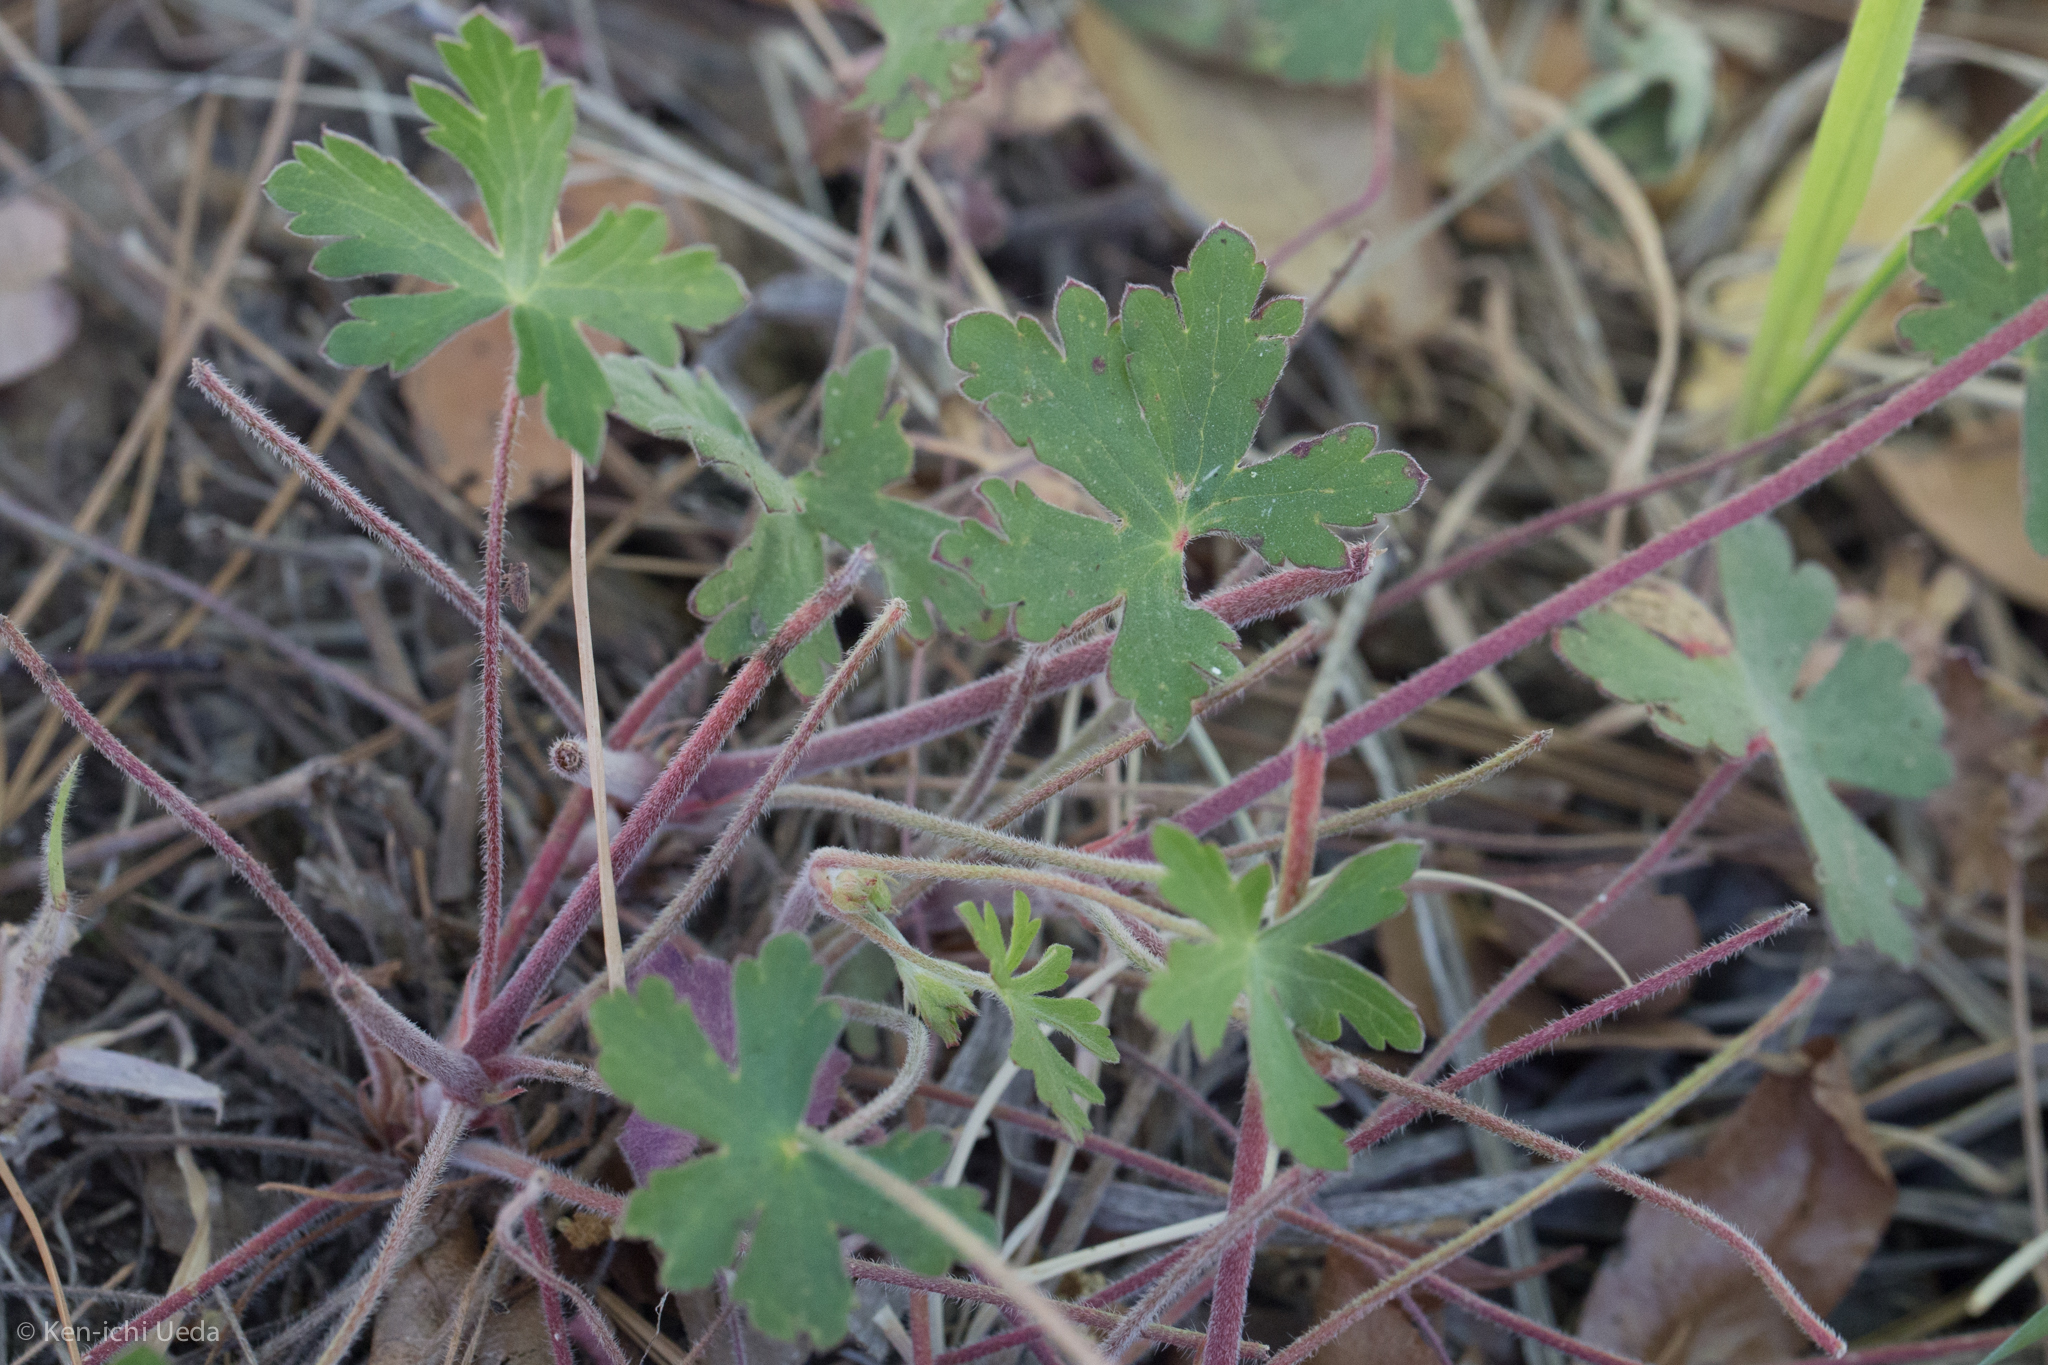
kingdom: Plantae
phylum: Tracheophyta
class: Magnoliopsida
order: Geraniales
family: Geraniaceae
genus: Geranium
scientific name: Geranium caespitosum
